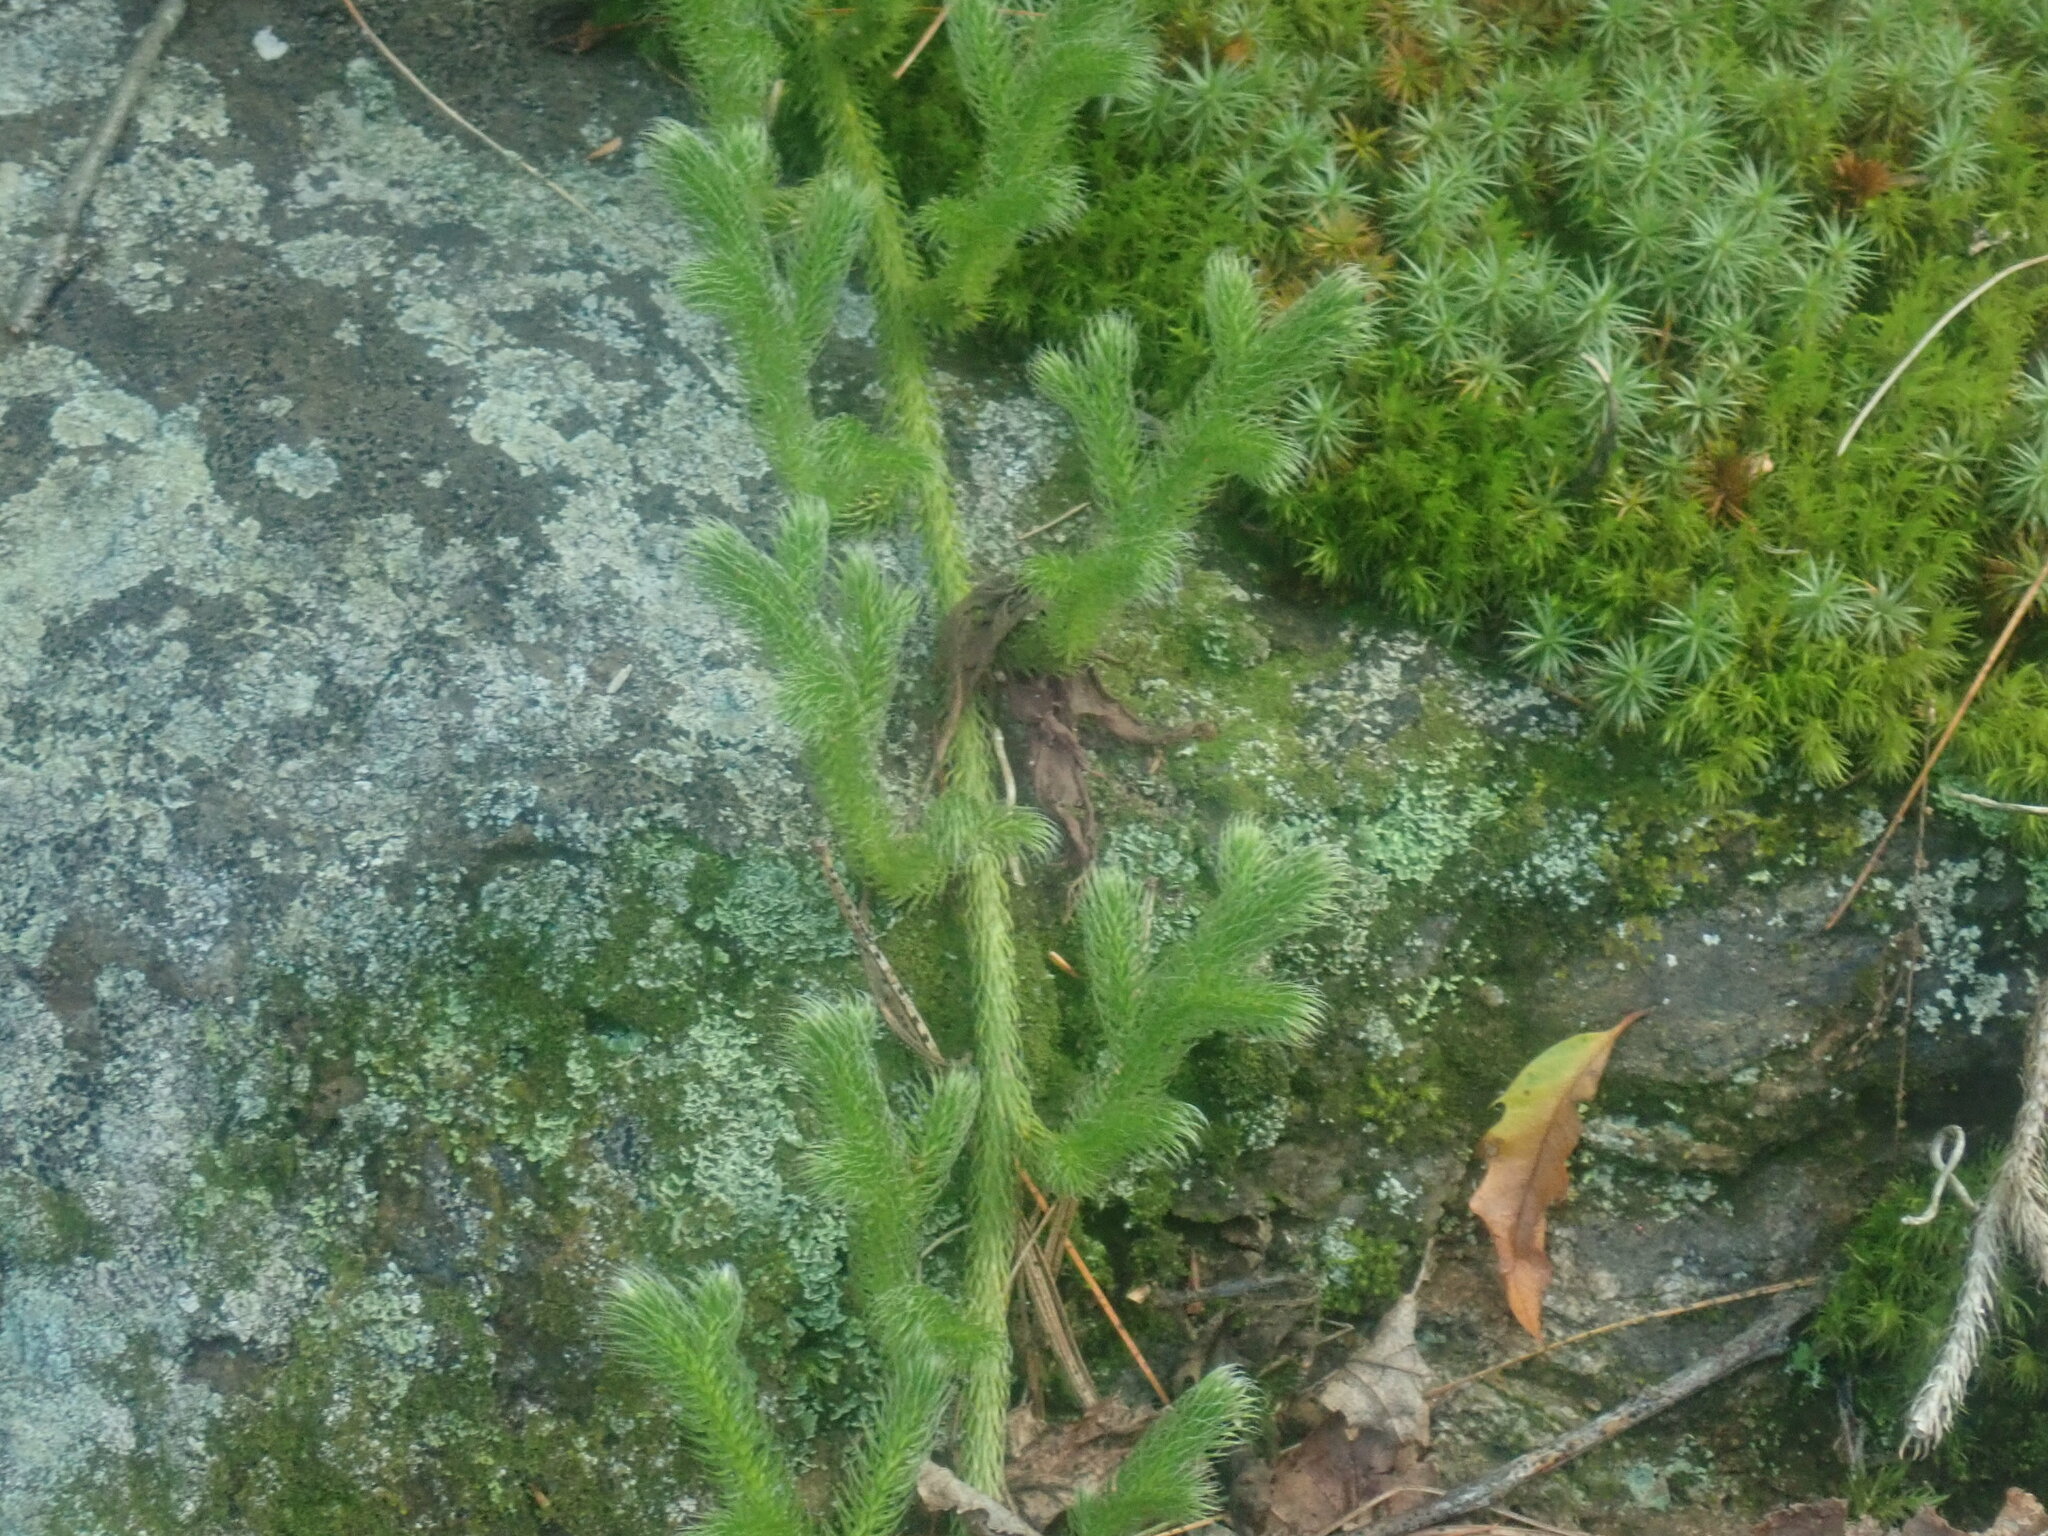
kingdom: Plantae
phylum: Tracheophyta
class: Lycopodiopsida
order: Lycopodiales
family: Lycopodiaceae
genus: Lycopodium
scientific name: Lycopodium clavatum
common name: Stag's-horn clubmoss
